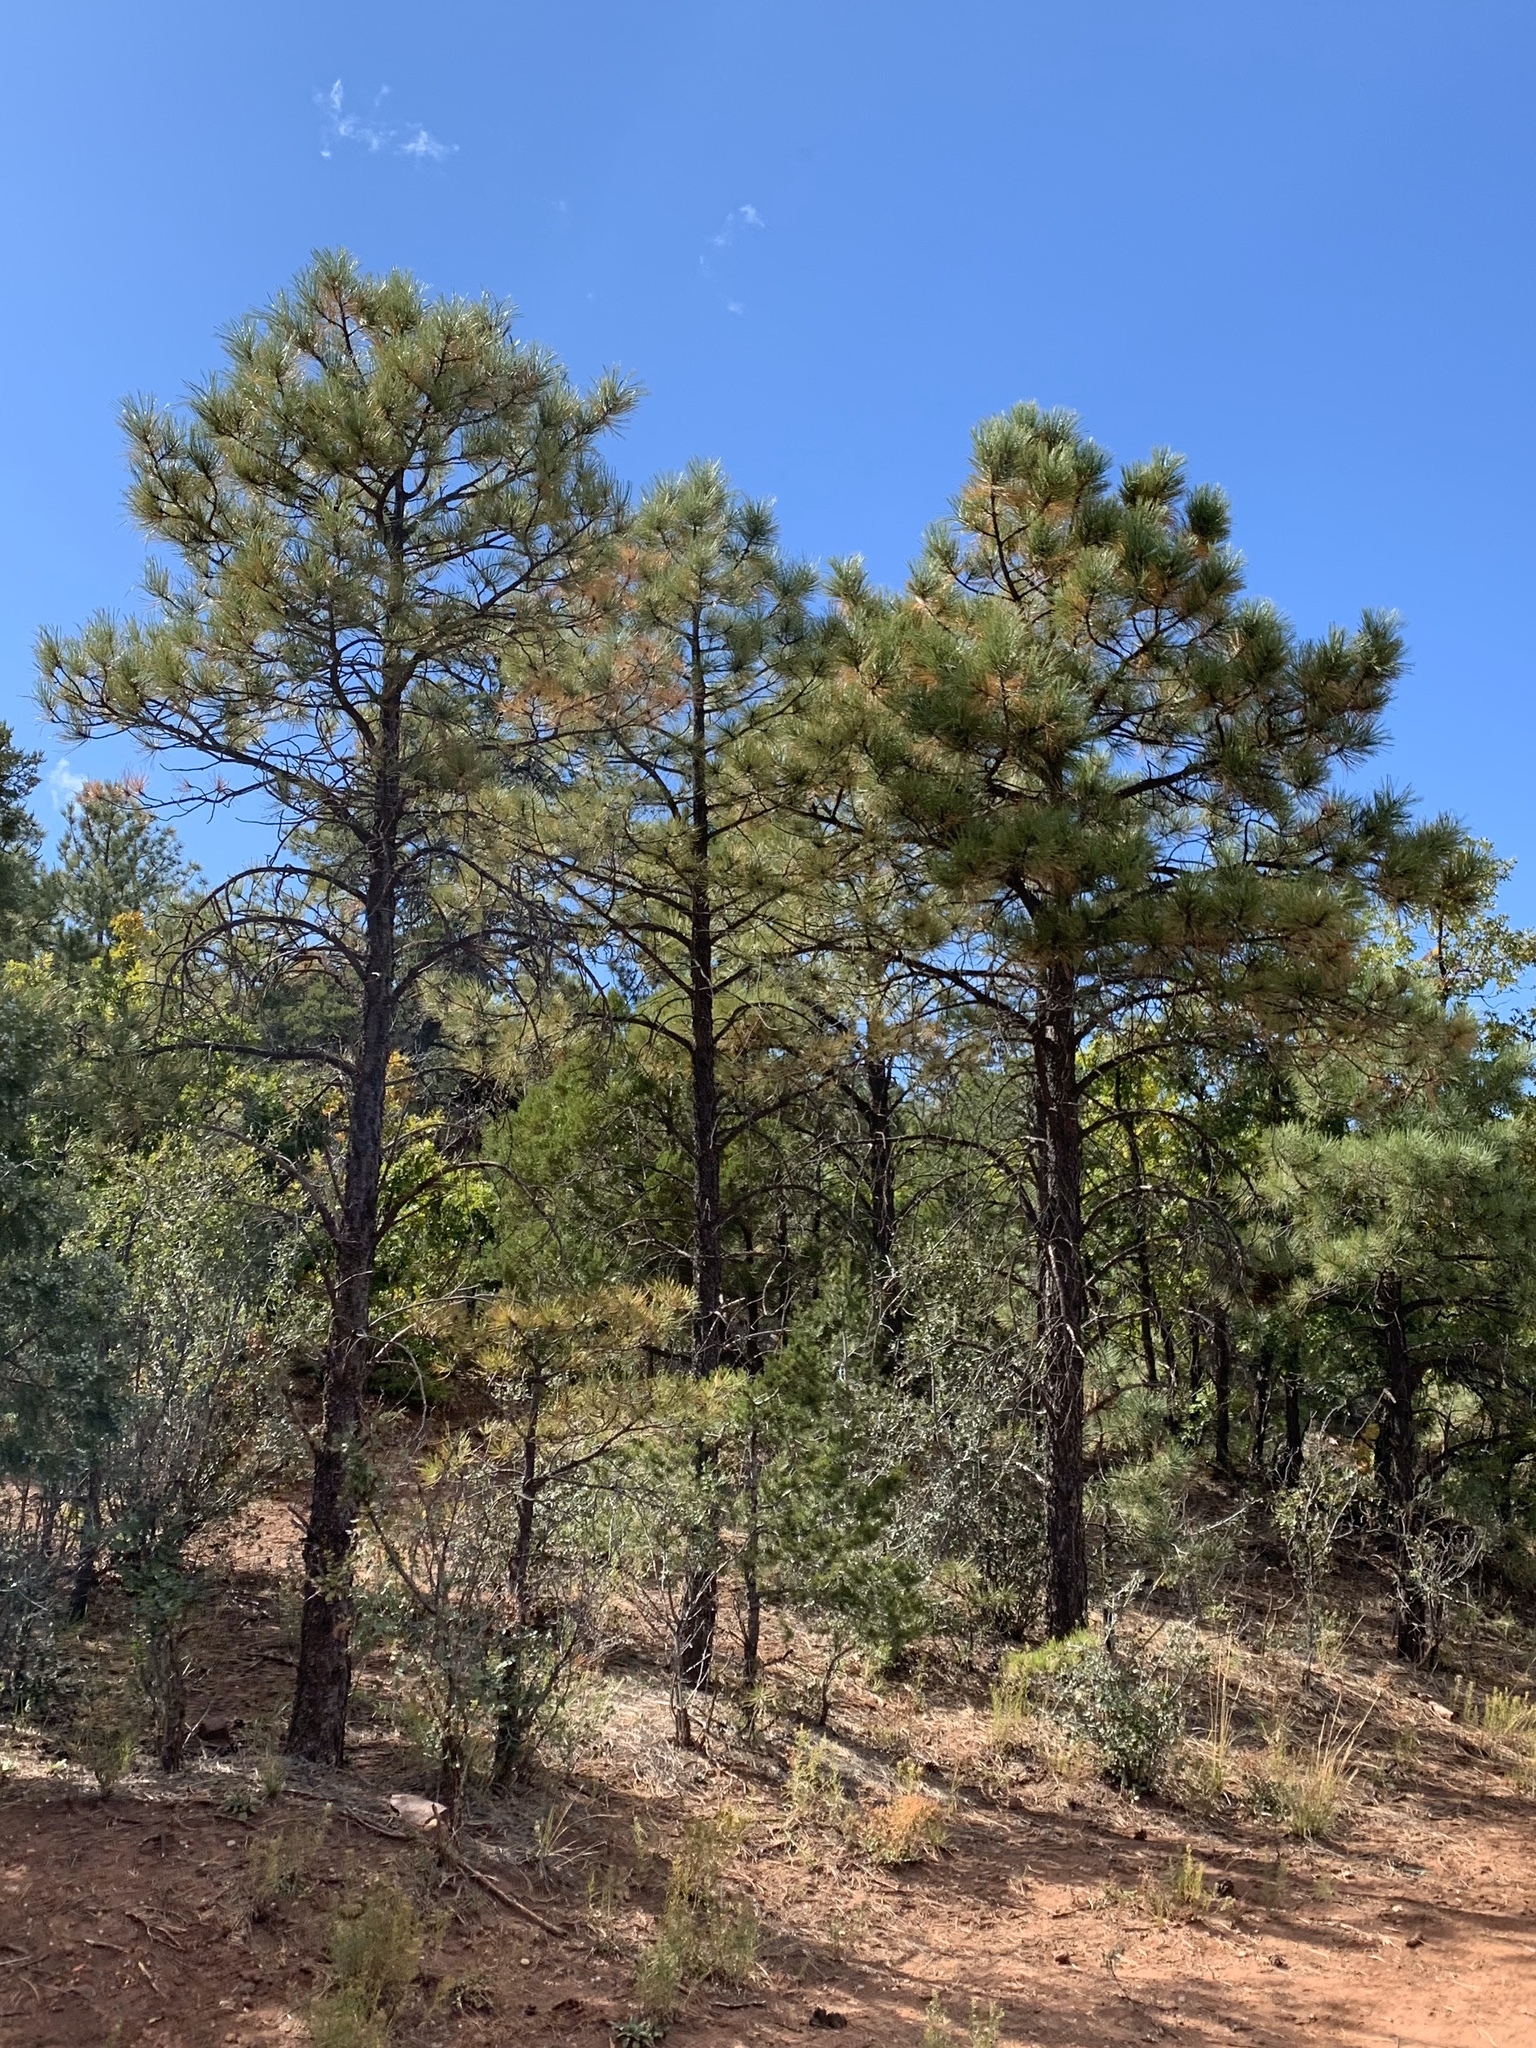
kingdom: Plantae
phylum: Tracheophyta
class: Pinopsida
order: Pinales
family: Pinaceae
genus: Pinus
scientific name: Pinus ponderosa
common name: Western yellow-pine
